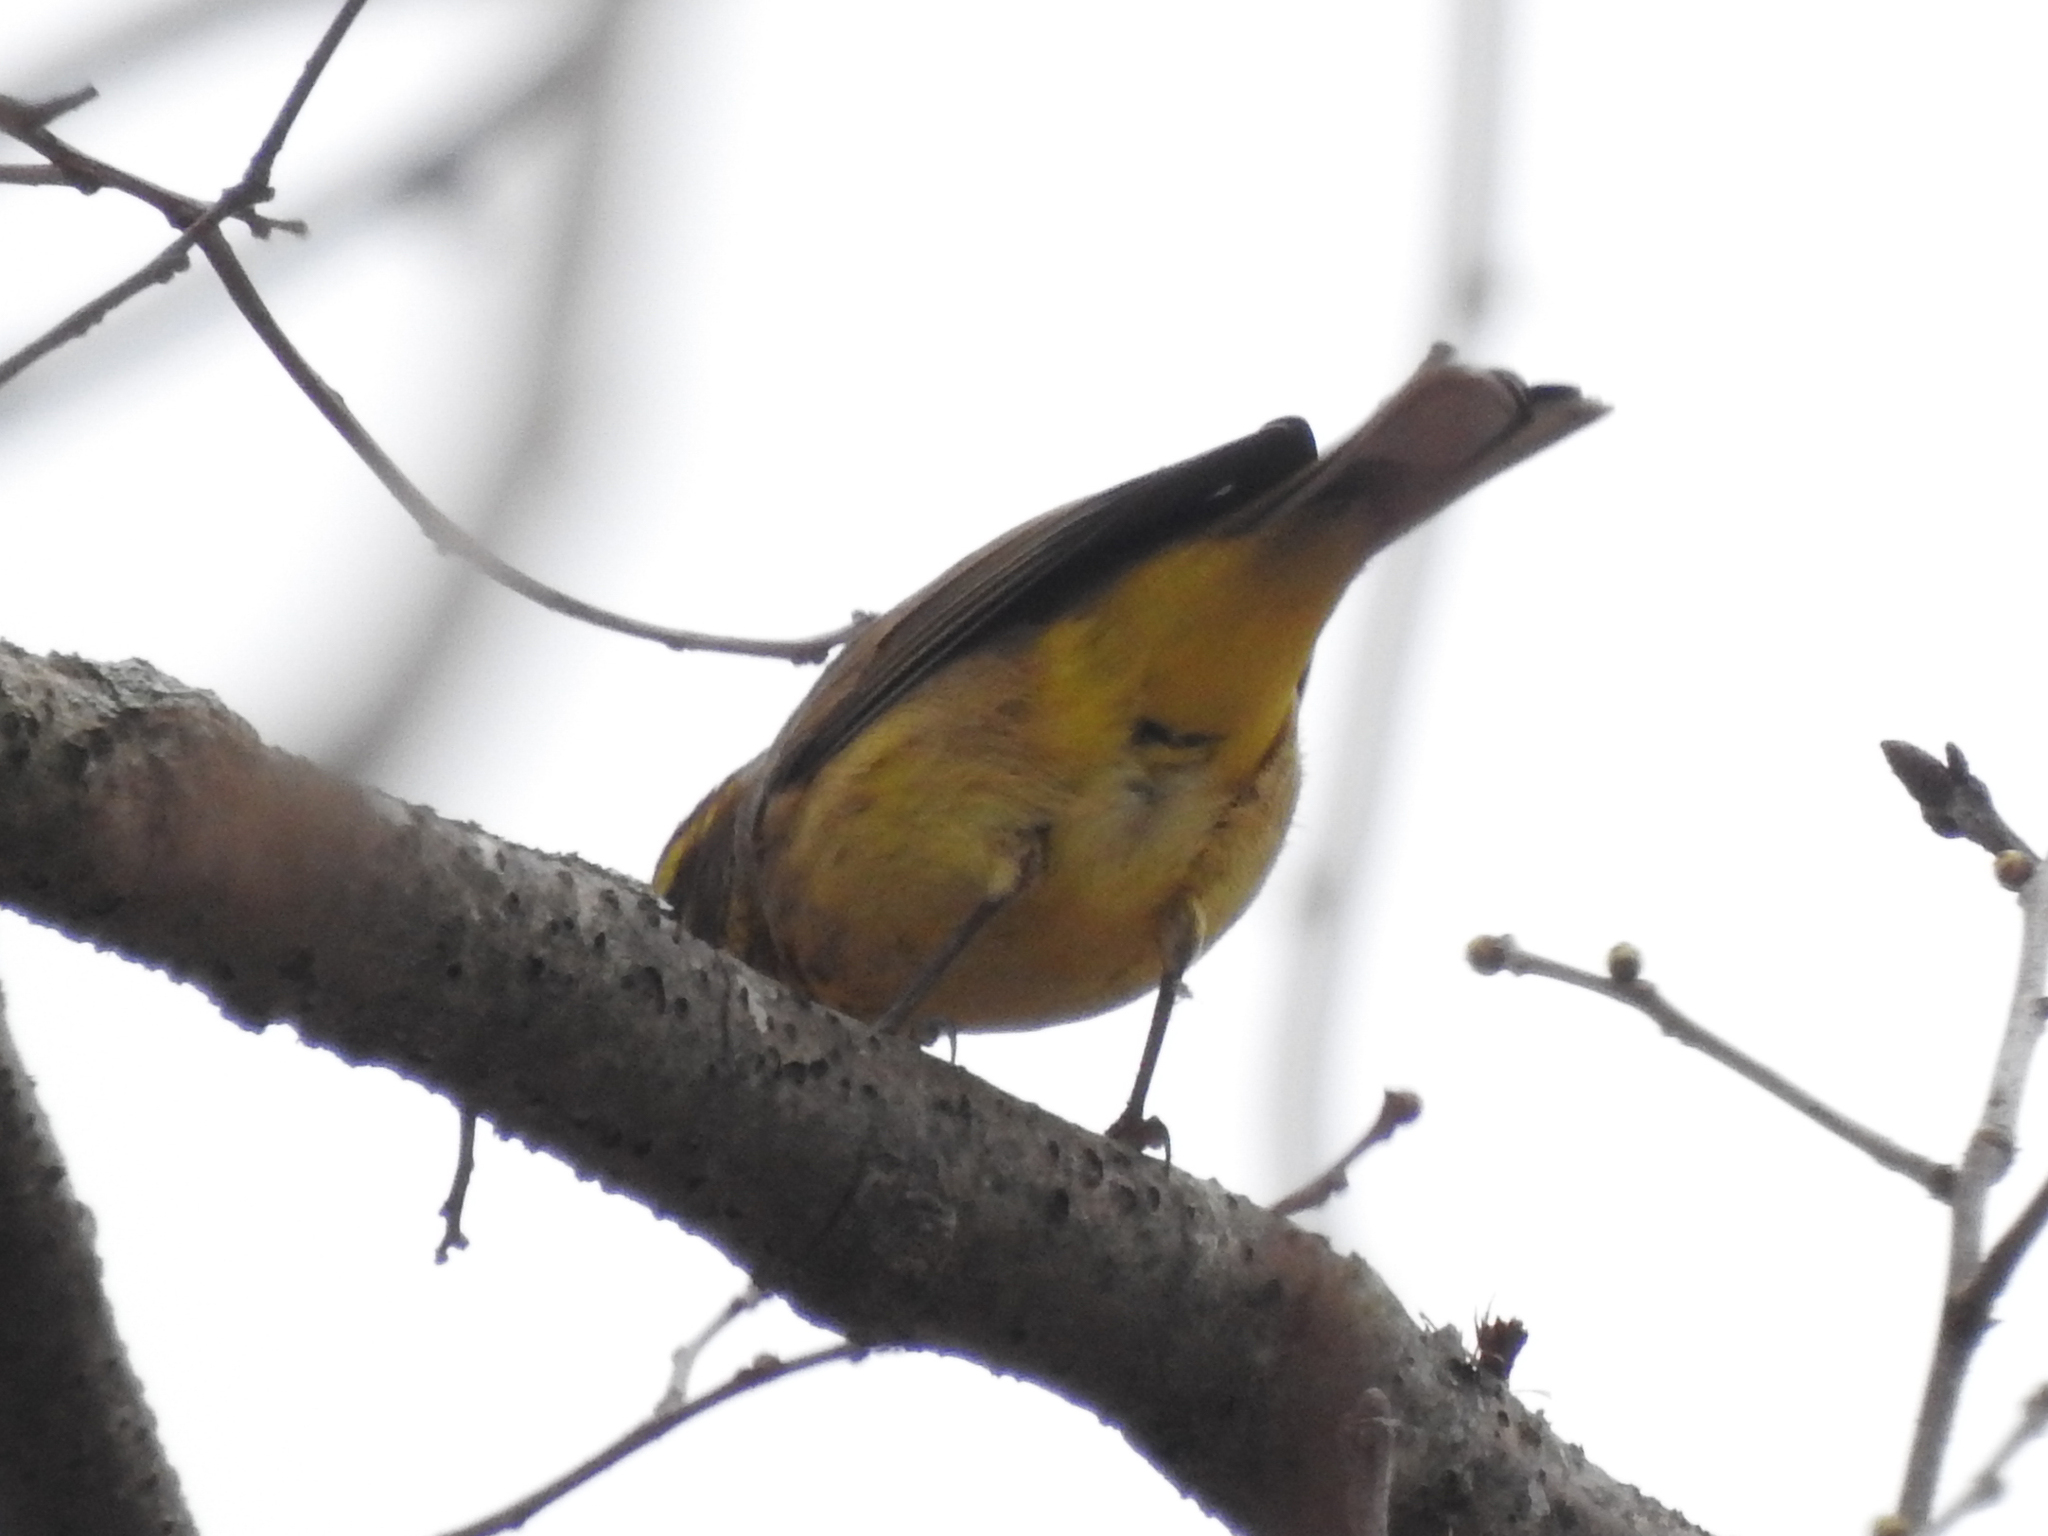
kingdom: Animalia
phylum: Chordata
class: Aves
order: Passeriformes
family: Parulidae
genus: Setophaga
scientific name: Setophaga palmarum
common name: Palm warbler
